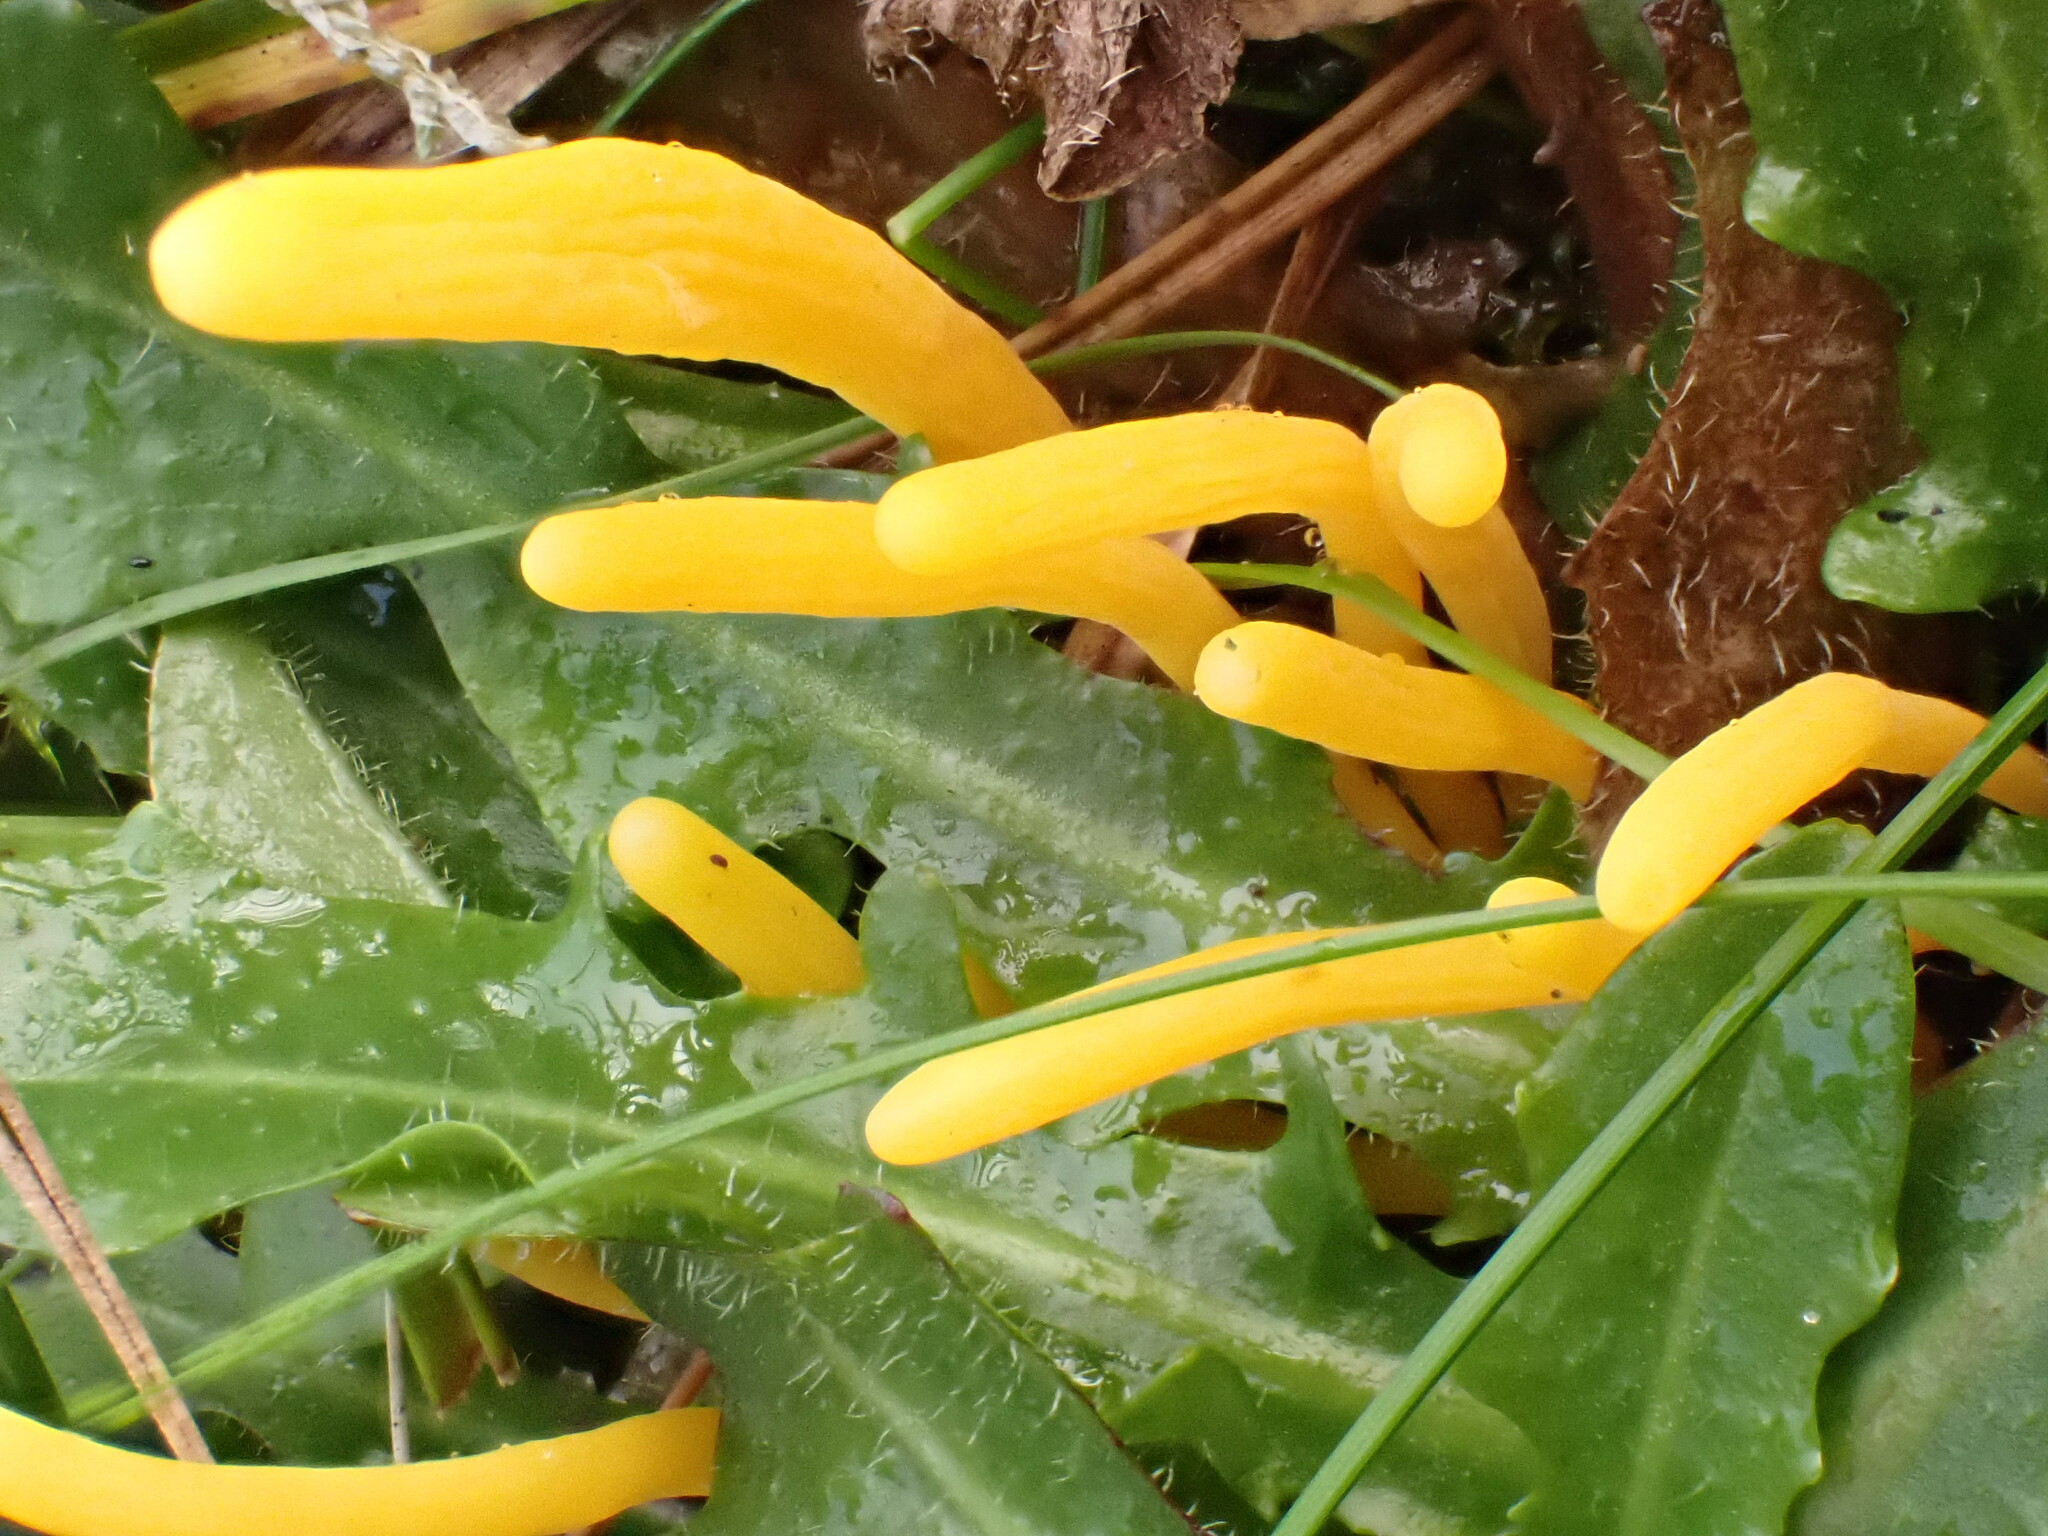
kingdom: Fungi
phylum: Basidiomycota
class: Agaricomycetes
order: Agaricales
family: Clavariaceae
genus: Clavulinopsis
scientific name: Clavulinopsis helvola
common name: Yellow club
